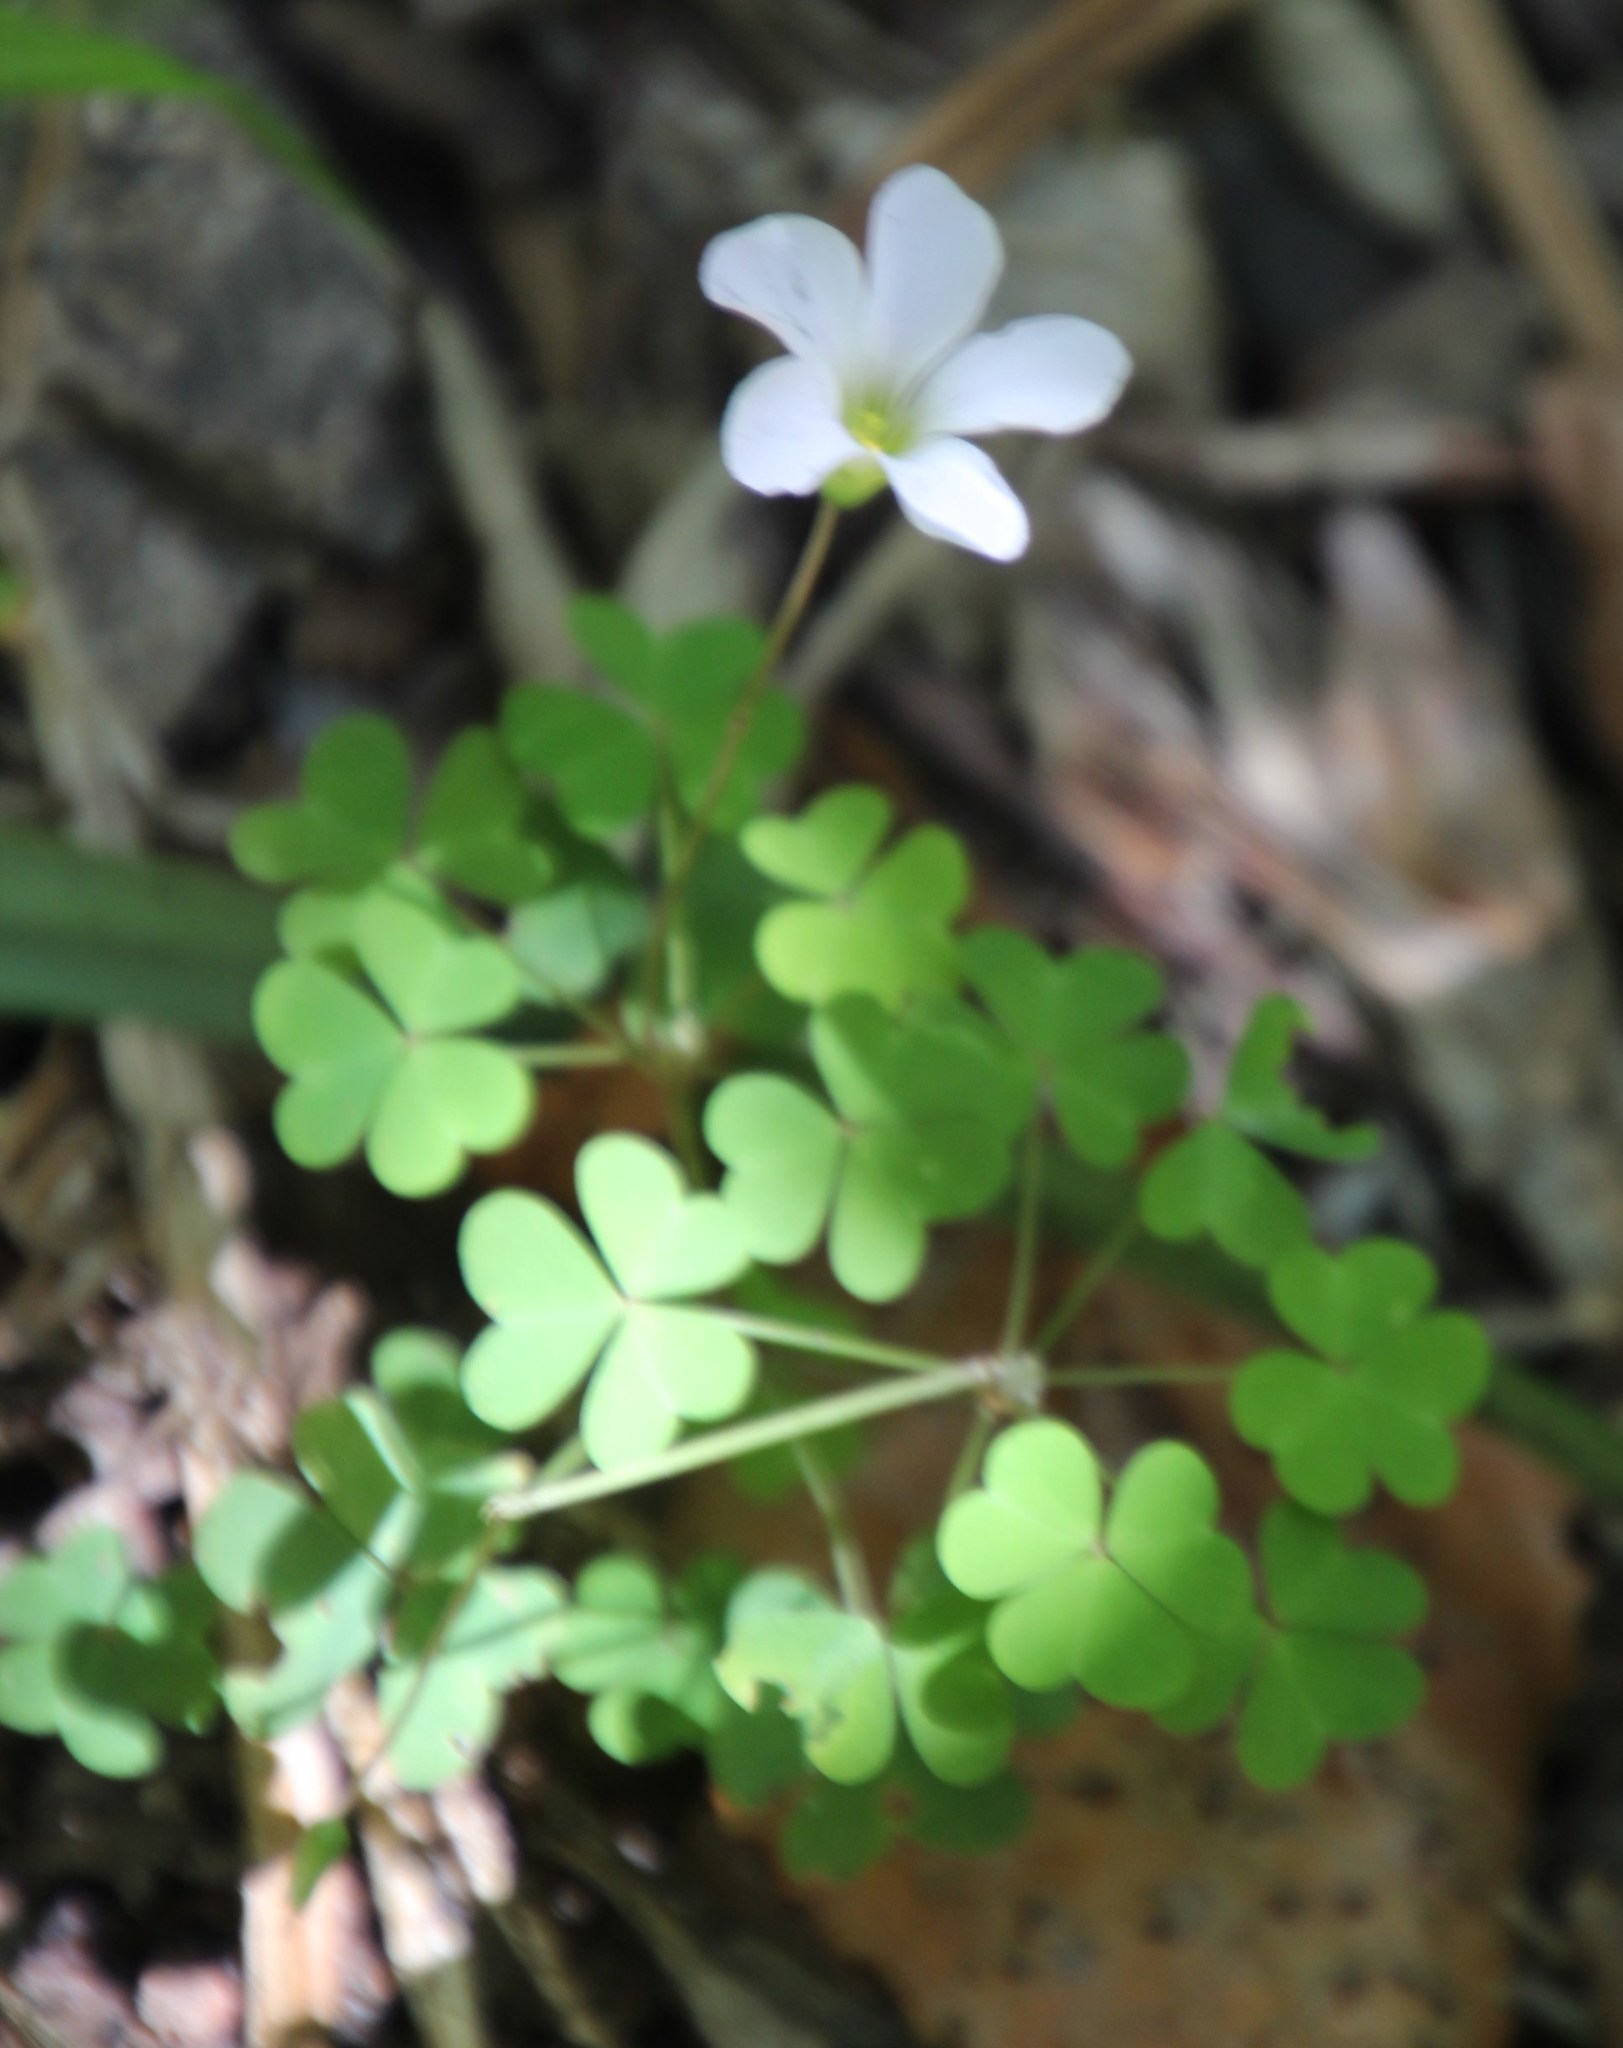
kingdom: Plantae
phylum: Tracheophyta
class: Magnoliopsida
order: Oxalidales
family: Oxalidaceae
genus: Oxalis
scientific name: Oxalis incarnata
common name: Pale pink-sorrel
